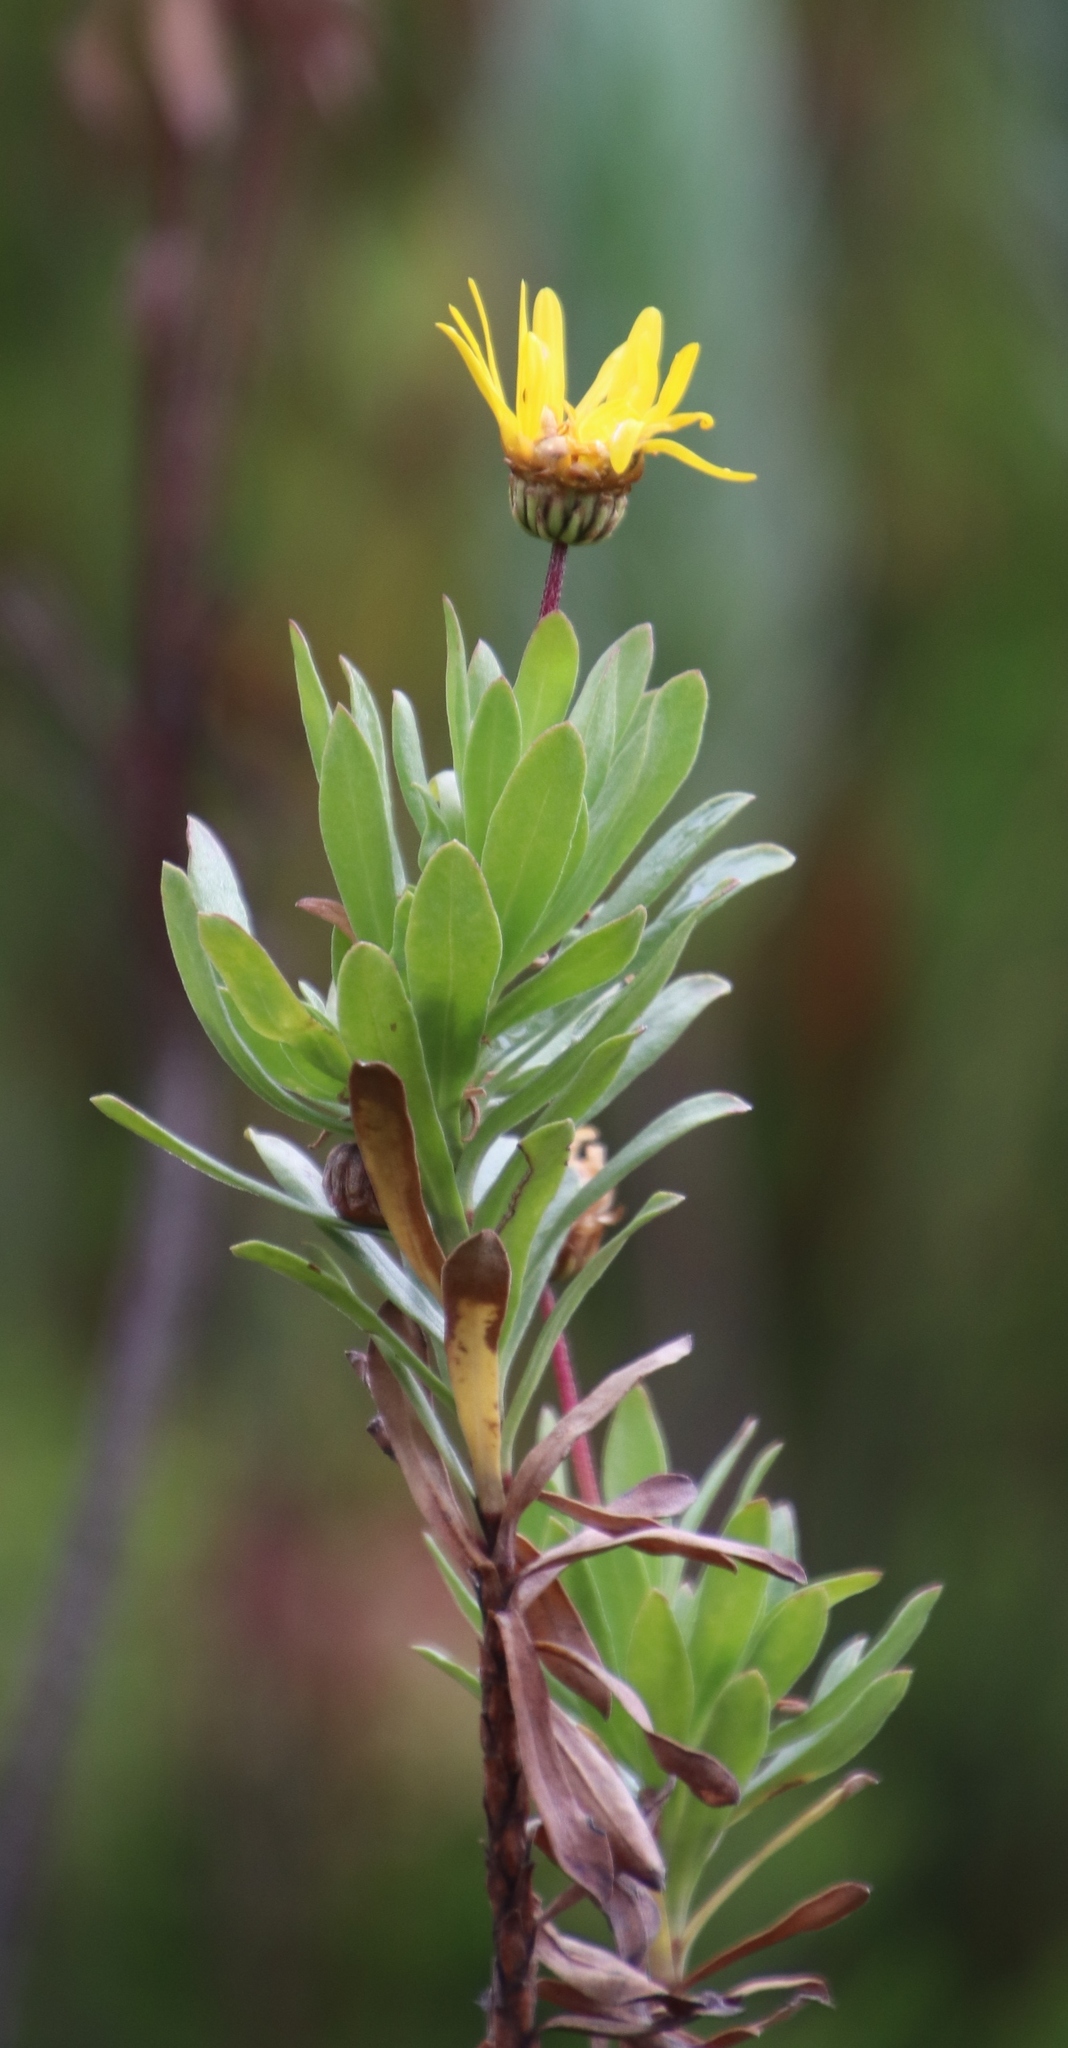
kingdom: Plantae
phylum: Tracheophyta
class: Magnoliopsida
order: Asterales
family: Asteraceae
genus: Ursinia
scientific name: Ursinia eckloniana
